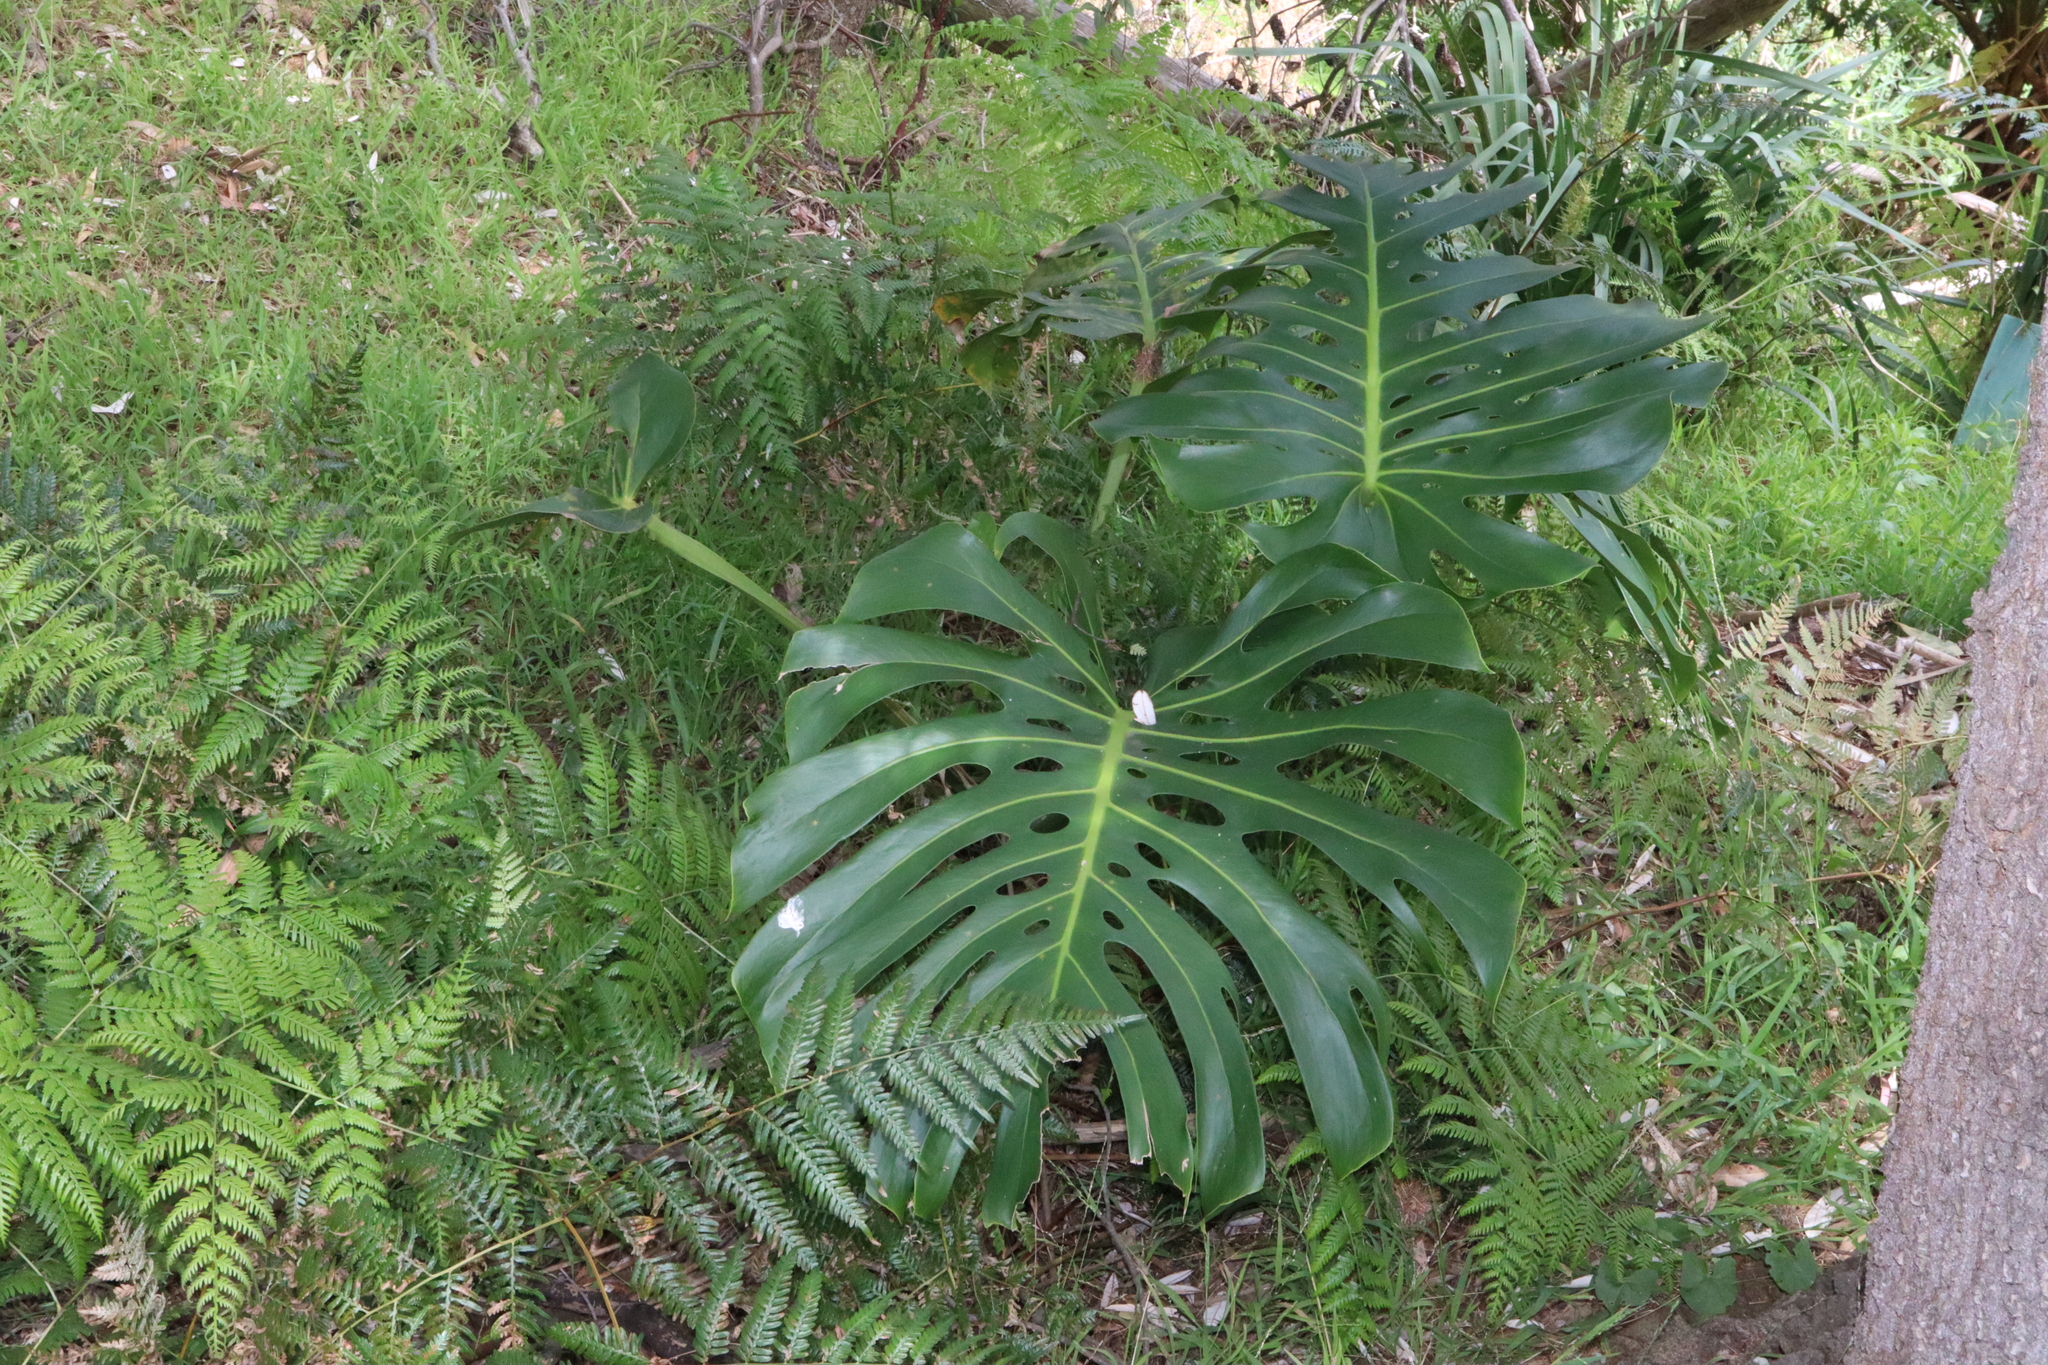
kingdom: Plantae
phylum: Tracheophyta
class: Liliopsida
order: Alismatales
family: Araceae
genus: Monstera
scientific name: Monstera deliciosa
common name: Cut-leaf-philodendron
